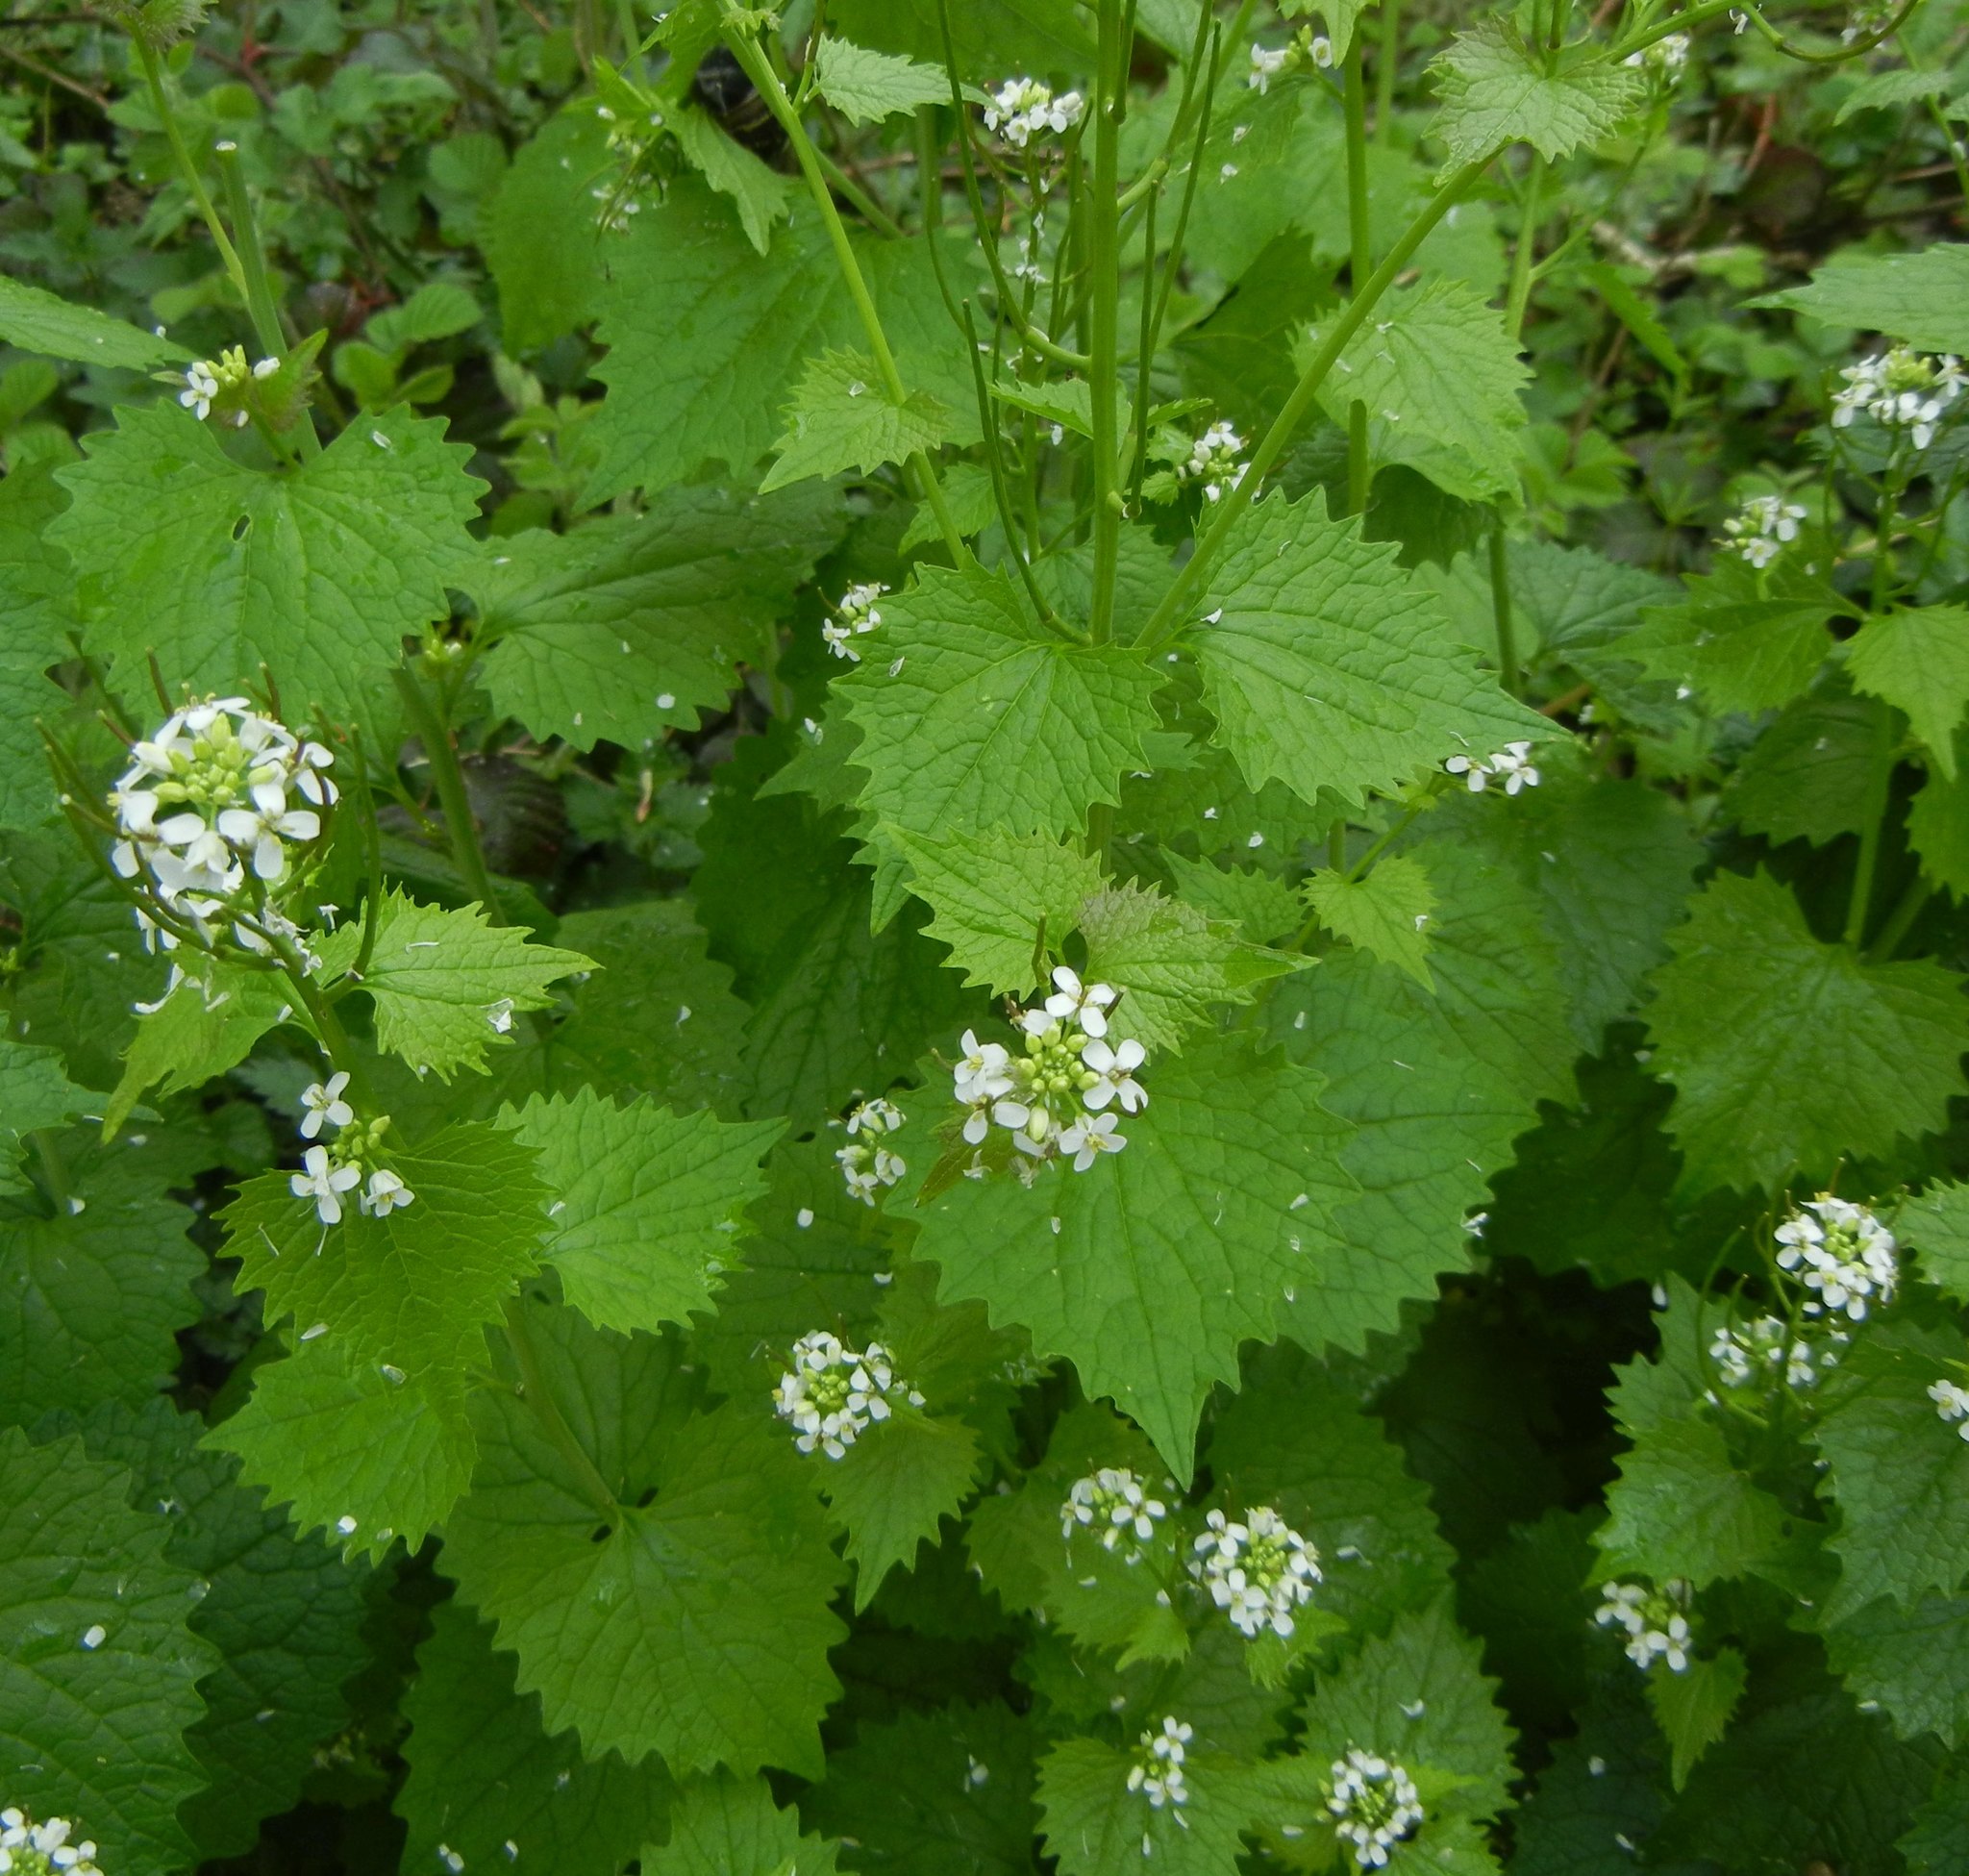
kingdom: Plantae
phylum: Tracheophyta
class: Magnoliopsida
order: Brassicales
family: Brassicaceae
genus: Alliaria
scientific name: Alliaria petiolata
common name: Garlic mustard
